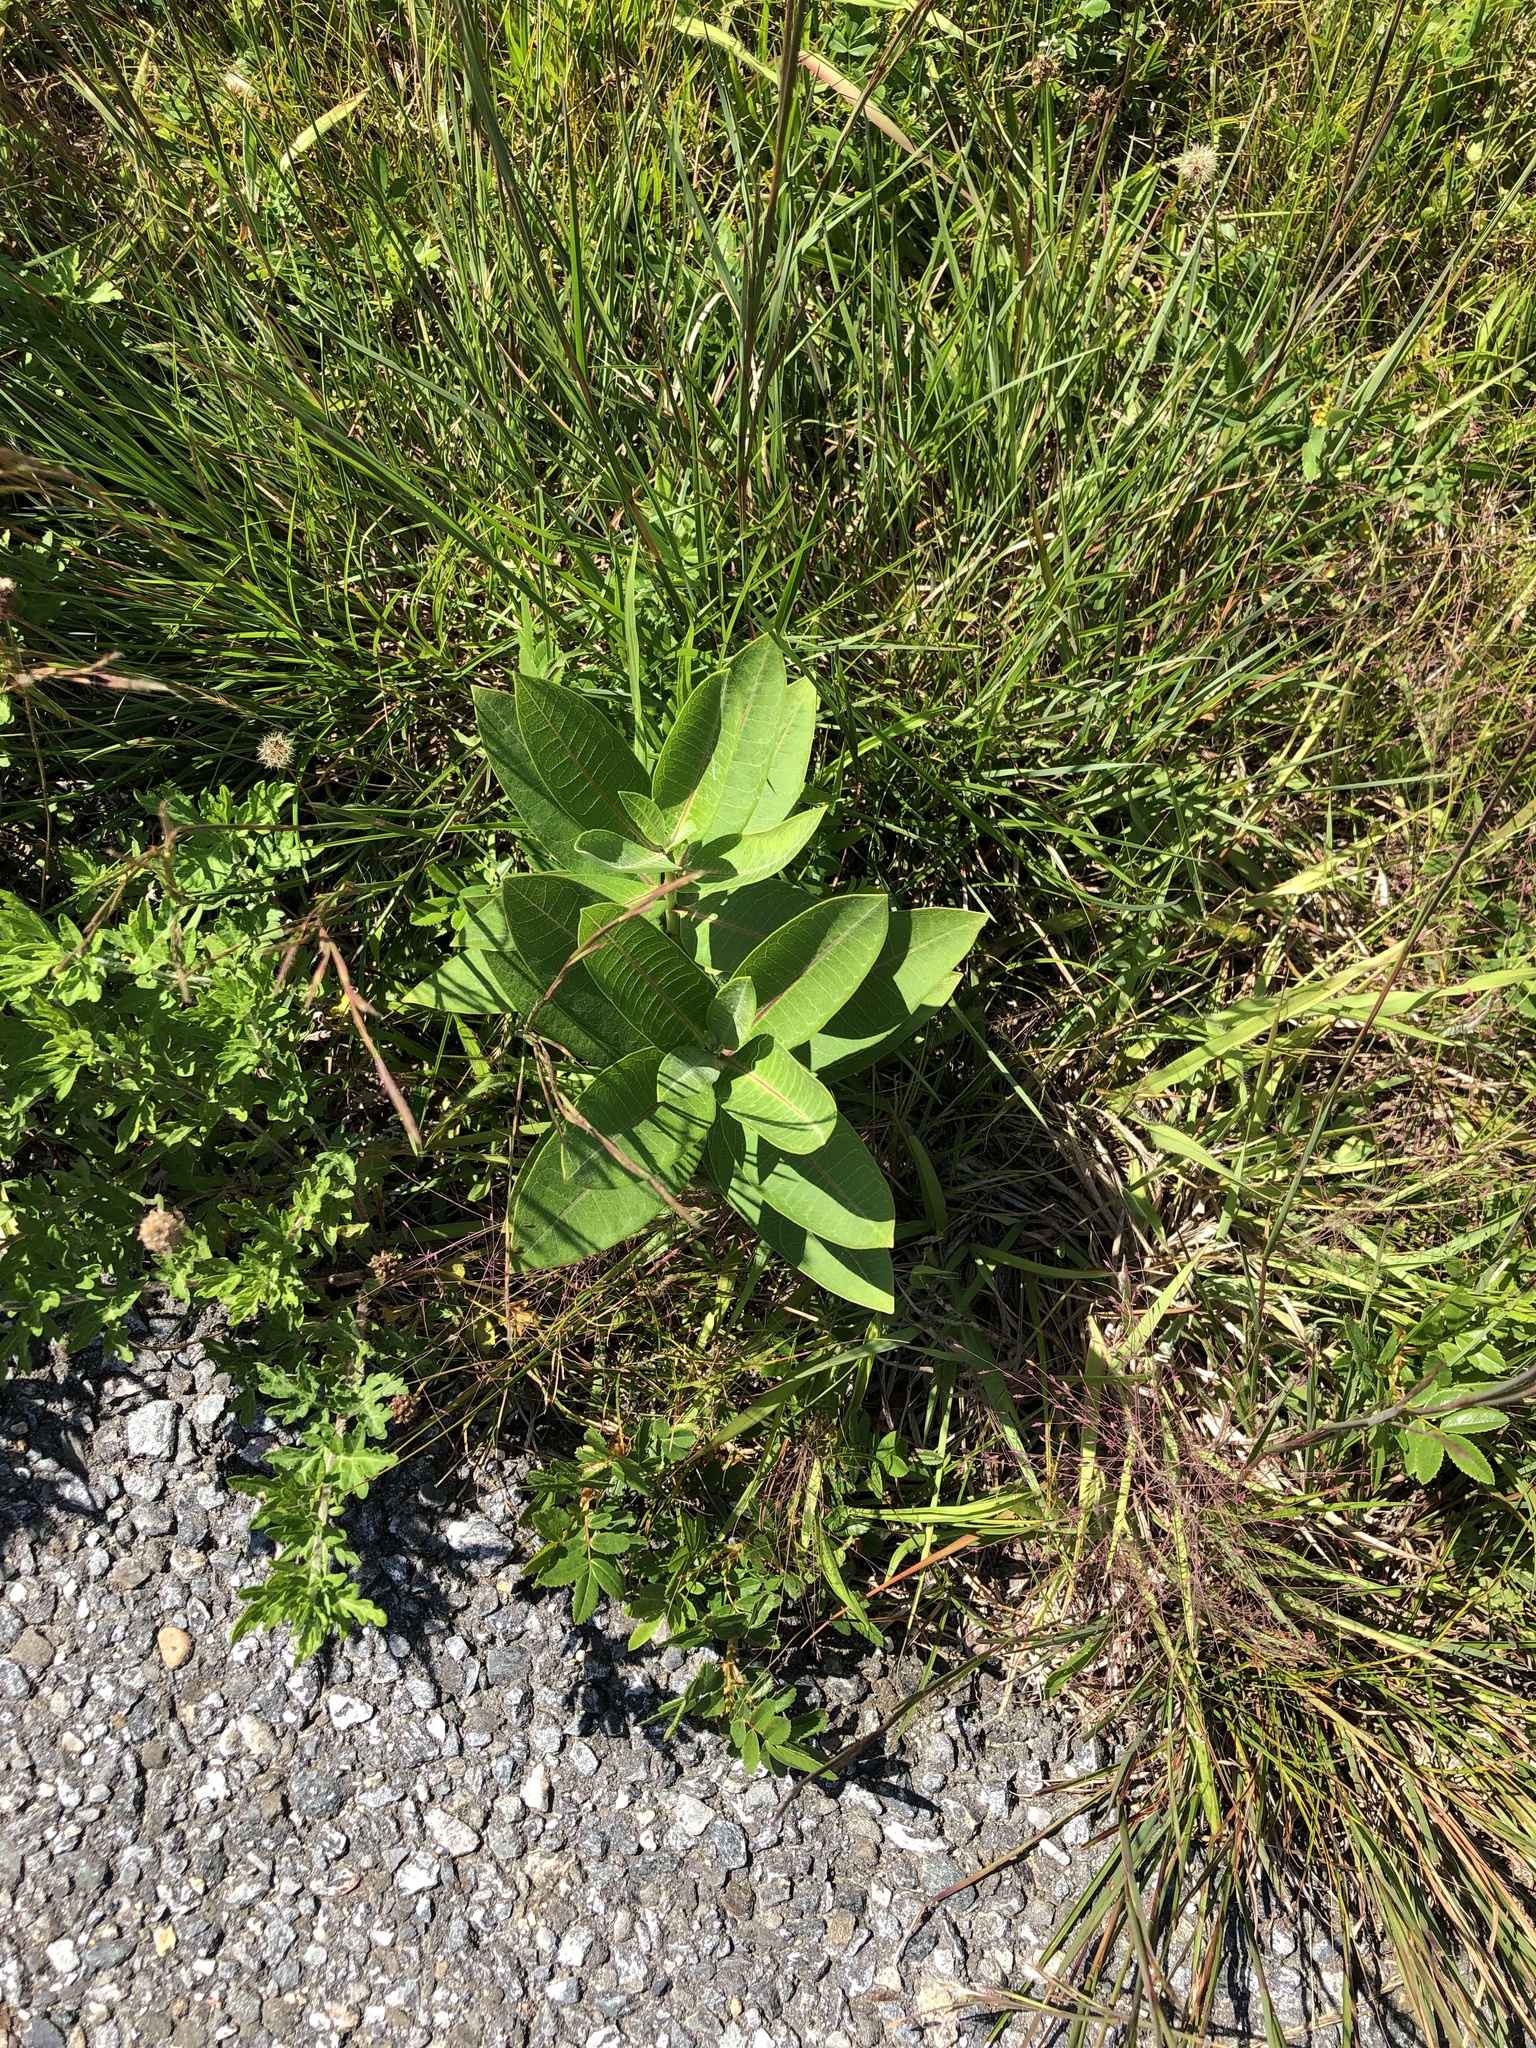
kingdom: Plantae
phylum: Tracheophyta
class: Magnoliopsida
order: Gentianales
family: Apocynaceae
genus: Asclepias
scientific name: Asclepias syriaca
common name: Common milkweed
